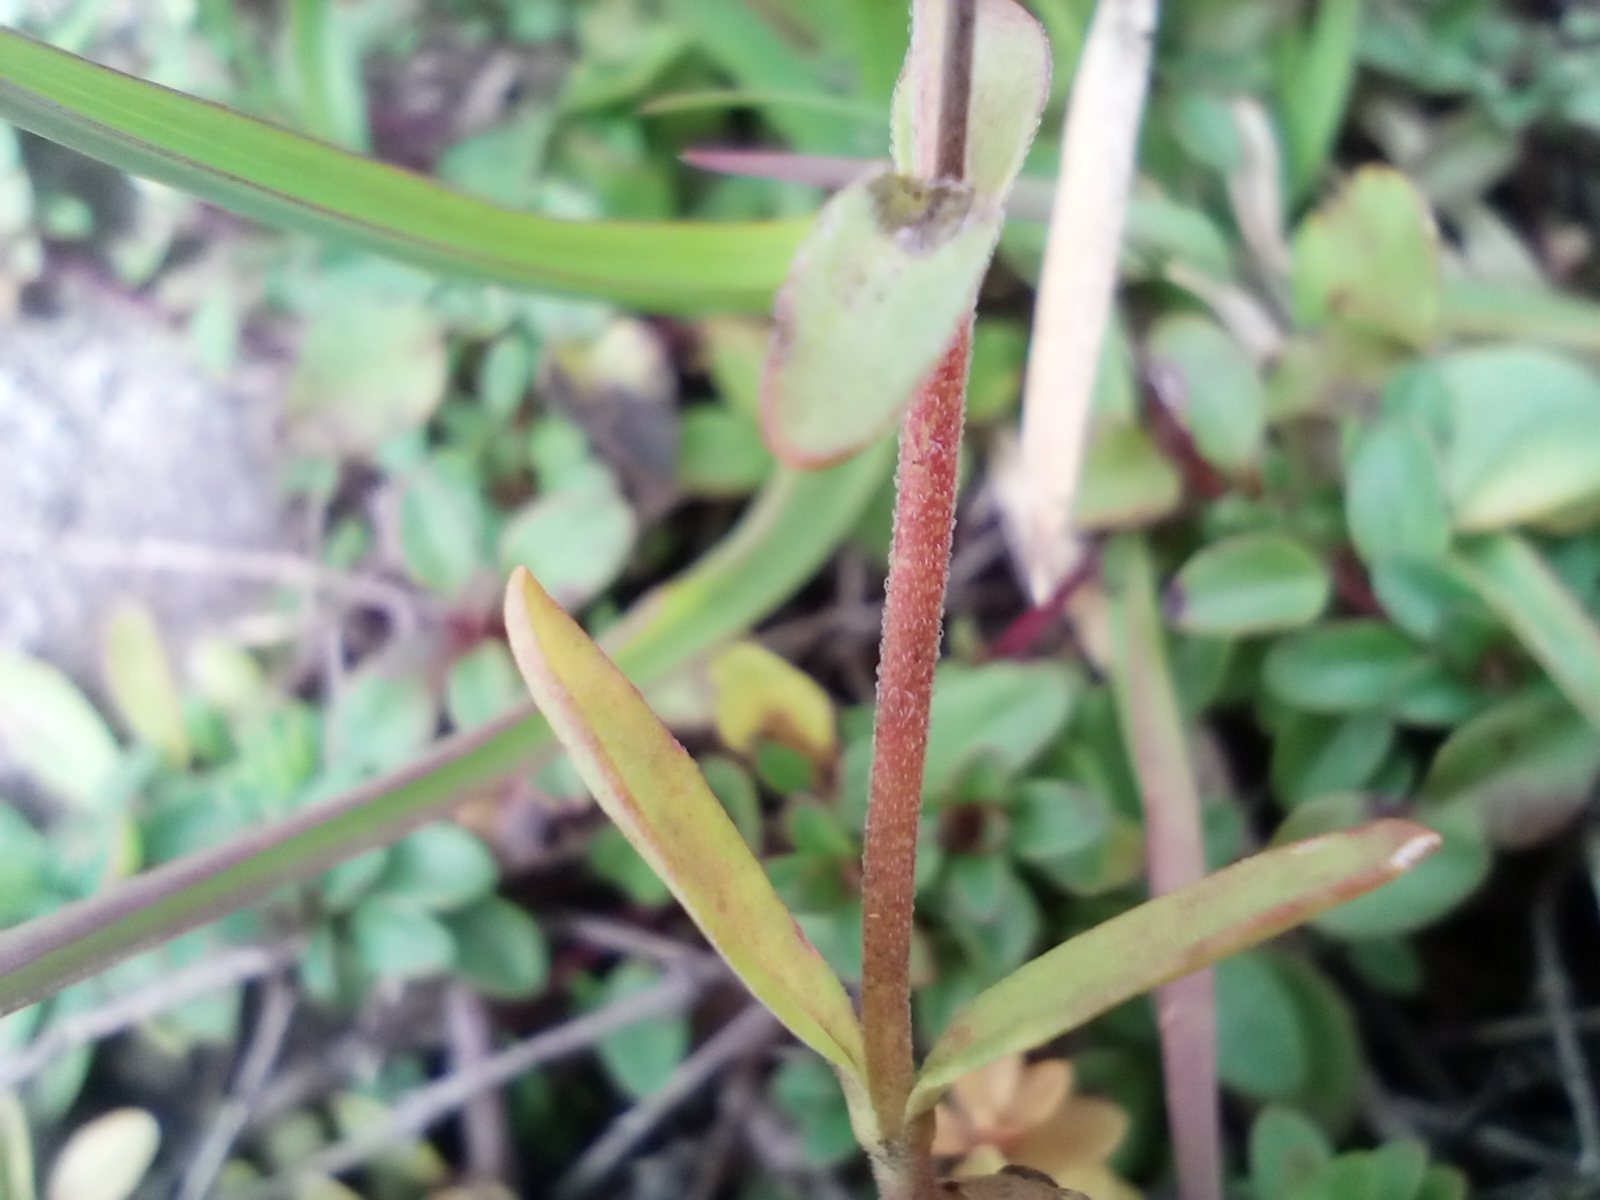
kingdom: Plantae
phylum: Tracheophyta
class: Magnoliopsida
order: Lamiales
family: Plantaginaceae
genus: Veronica
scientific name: Veronica fruticans
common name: Rock speedwell
